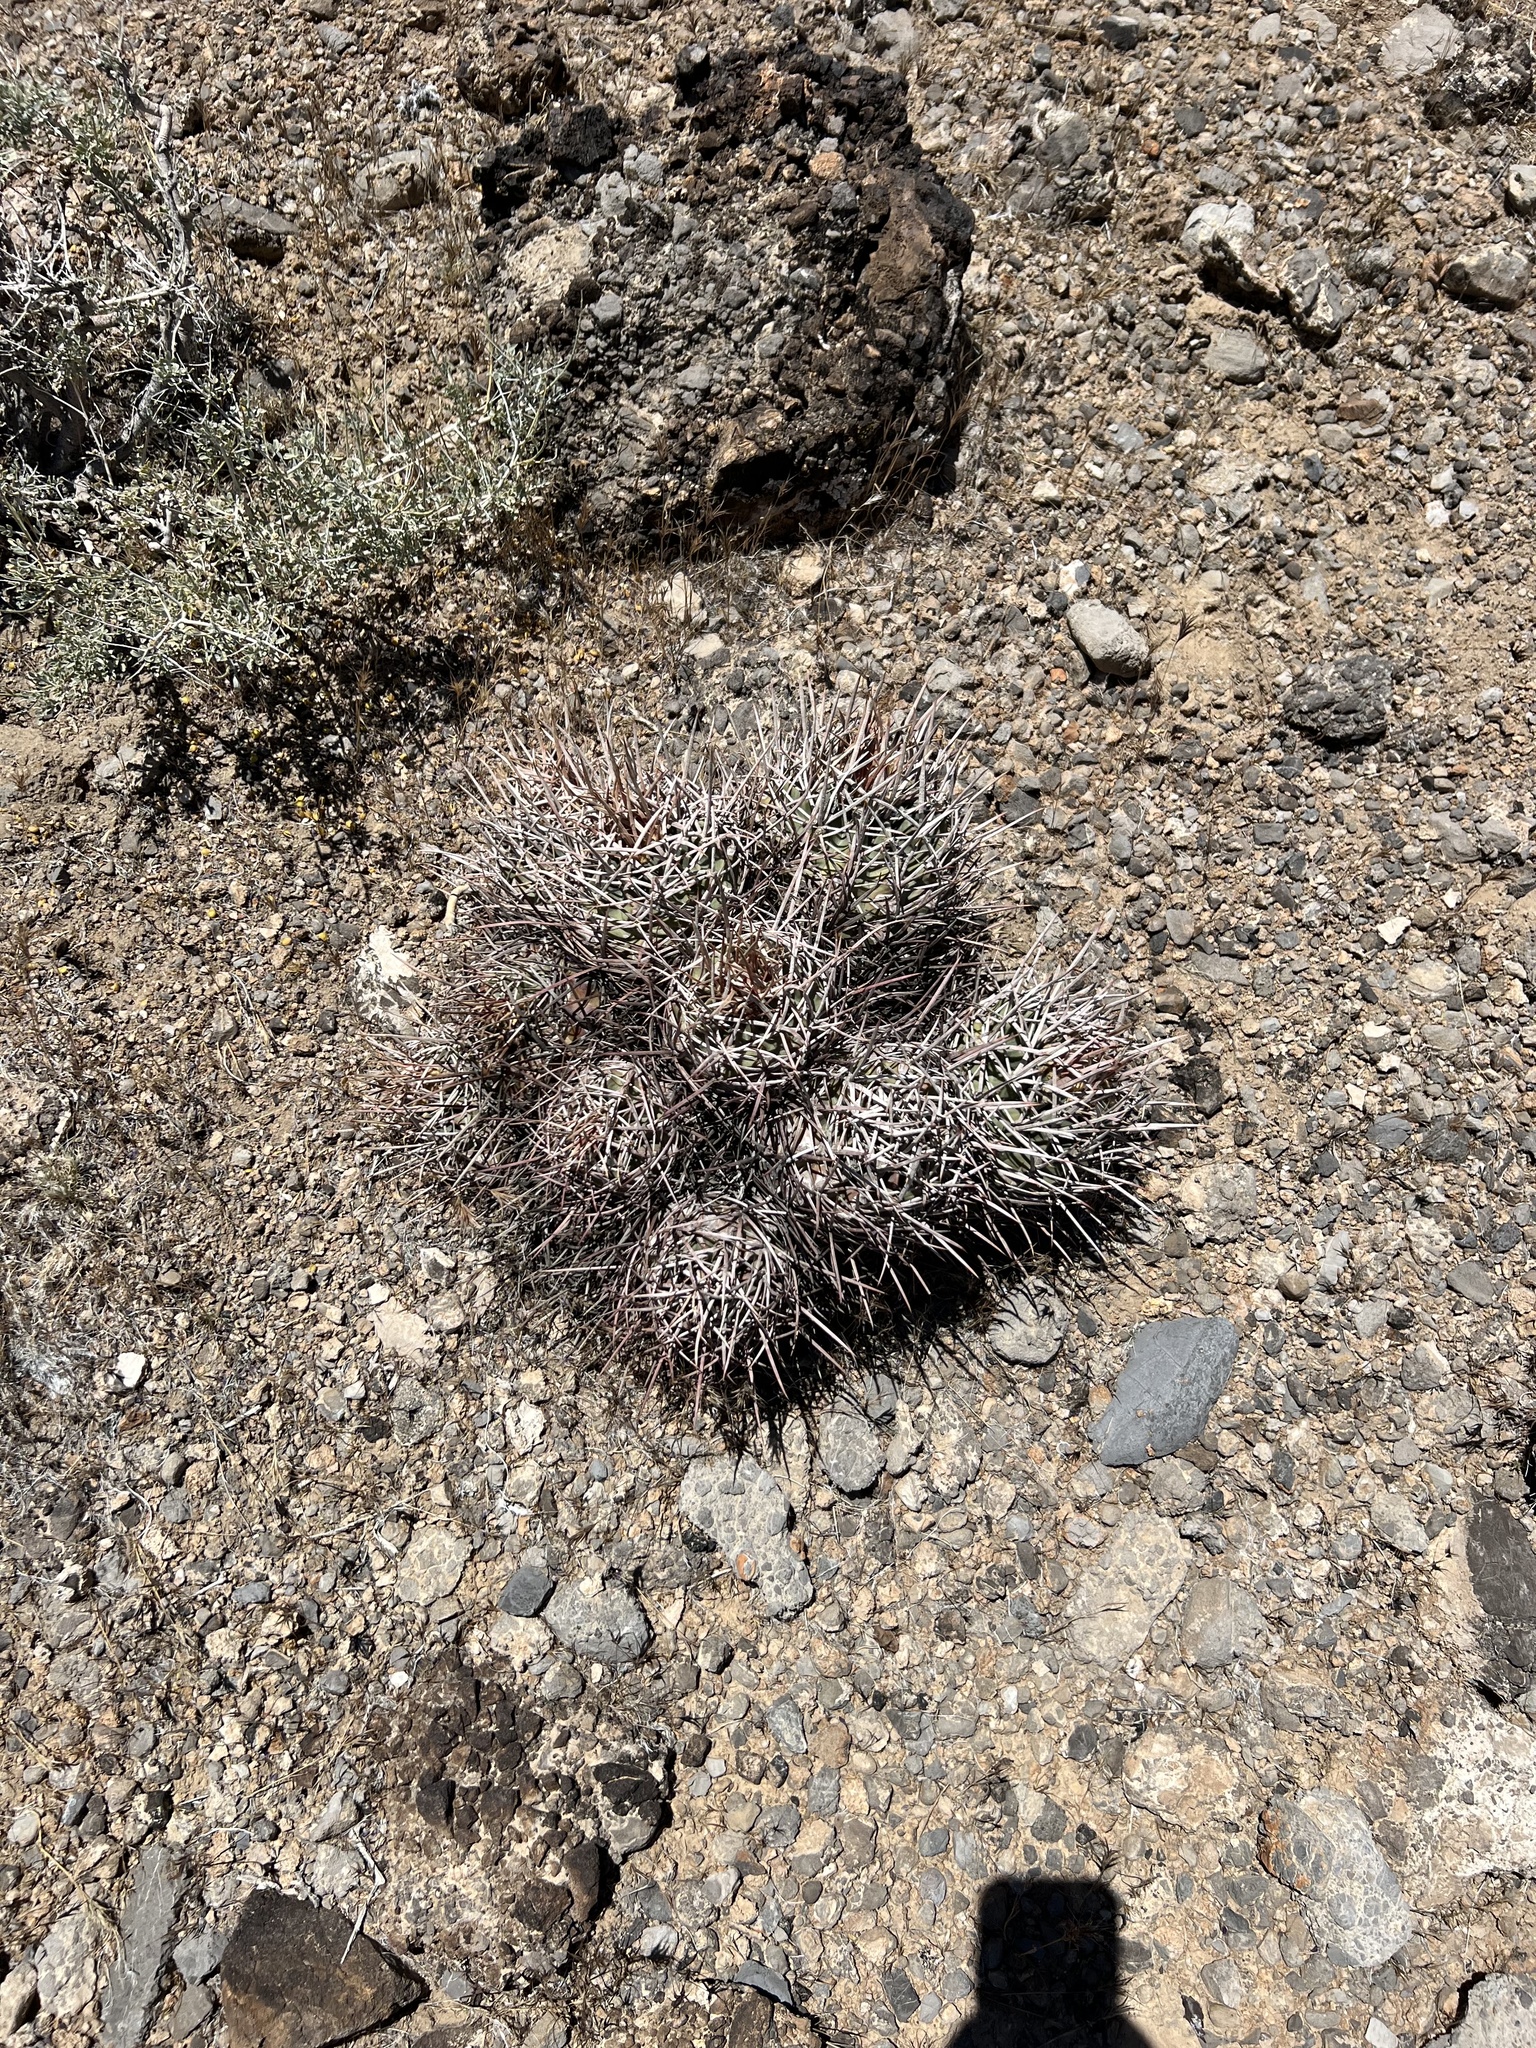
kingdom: Plantae
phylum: Tracheophyta
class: Magnoliopsida
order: Caryophyllales
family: Cactaceae
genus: Echinocactus
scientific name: Echinocactus polycephalus
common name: Cottontop cactus
